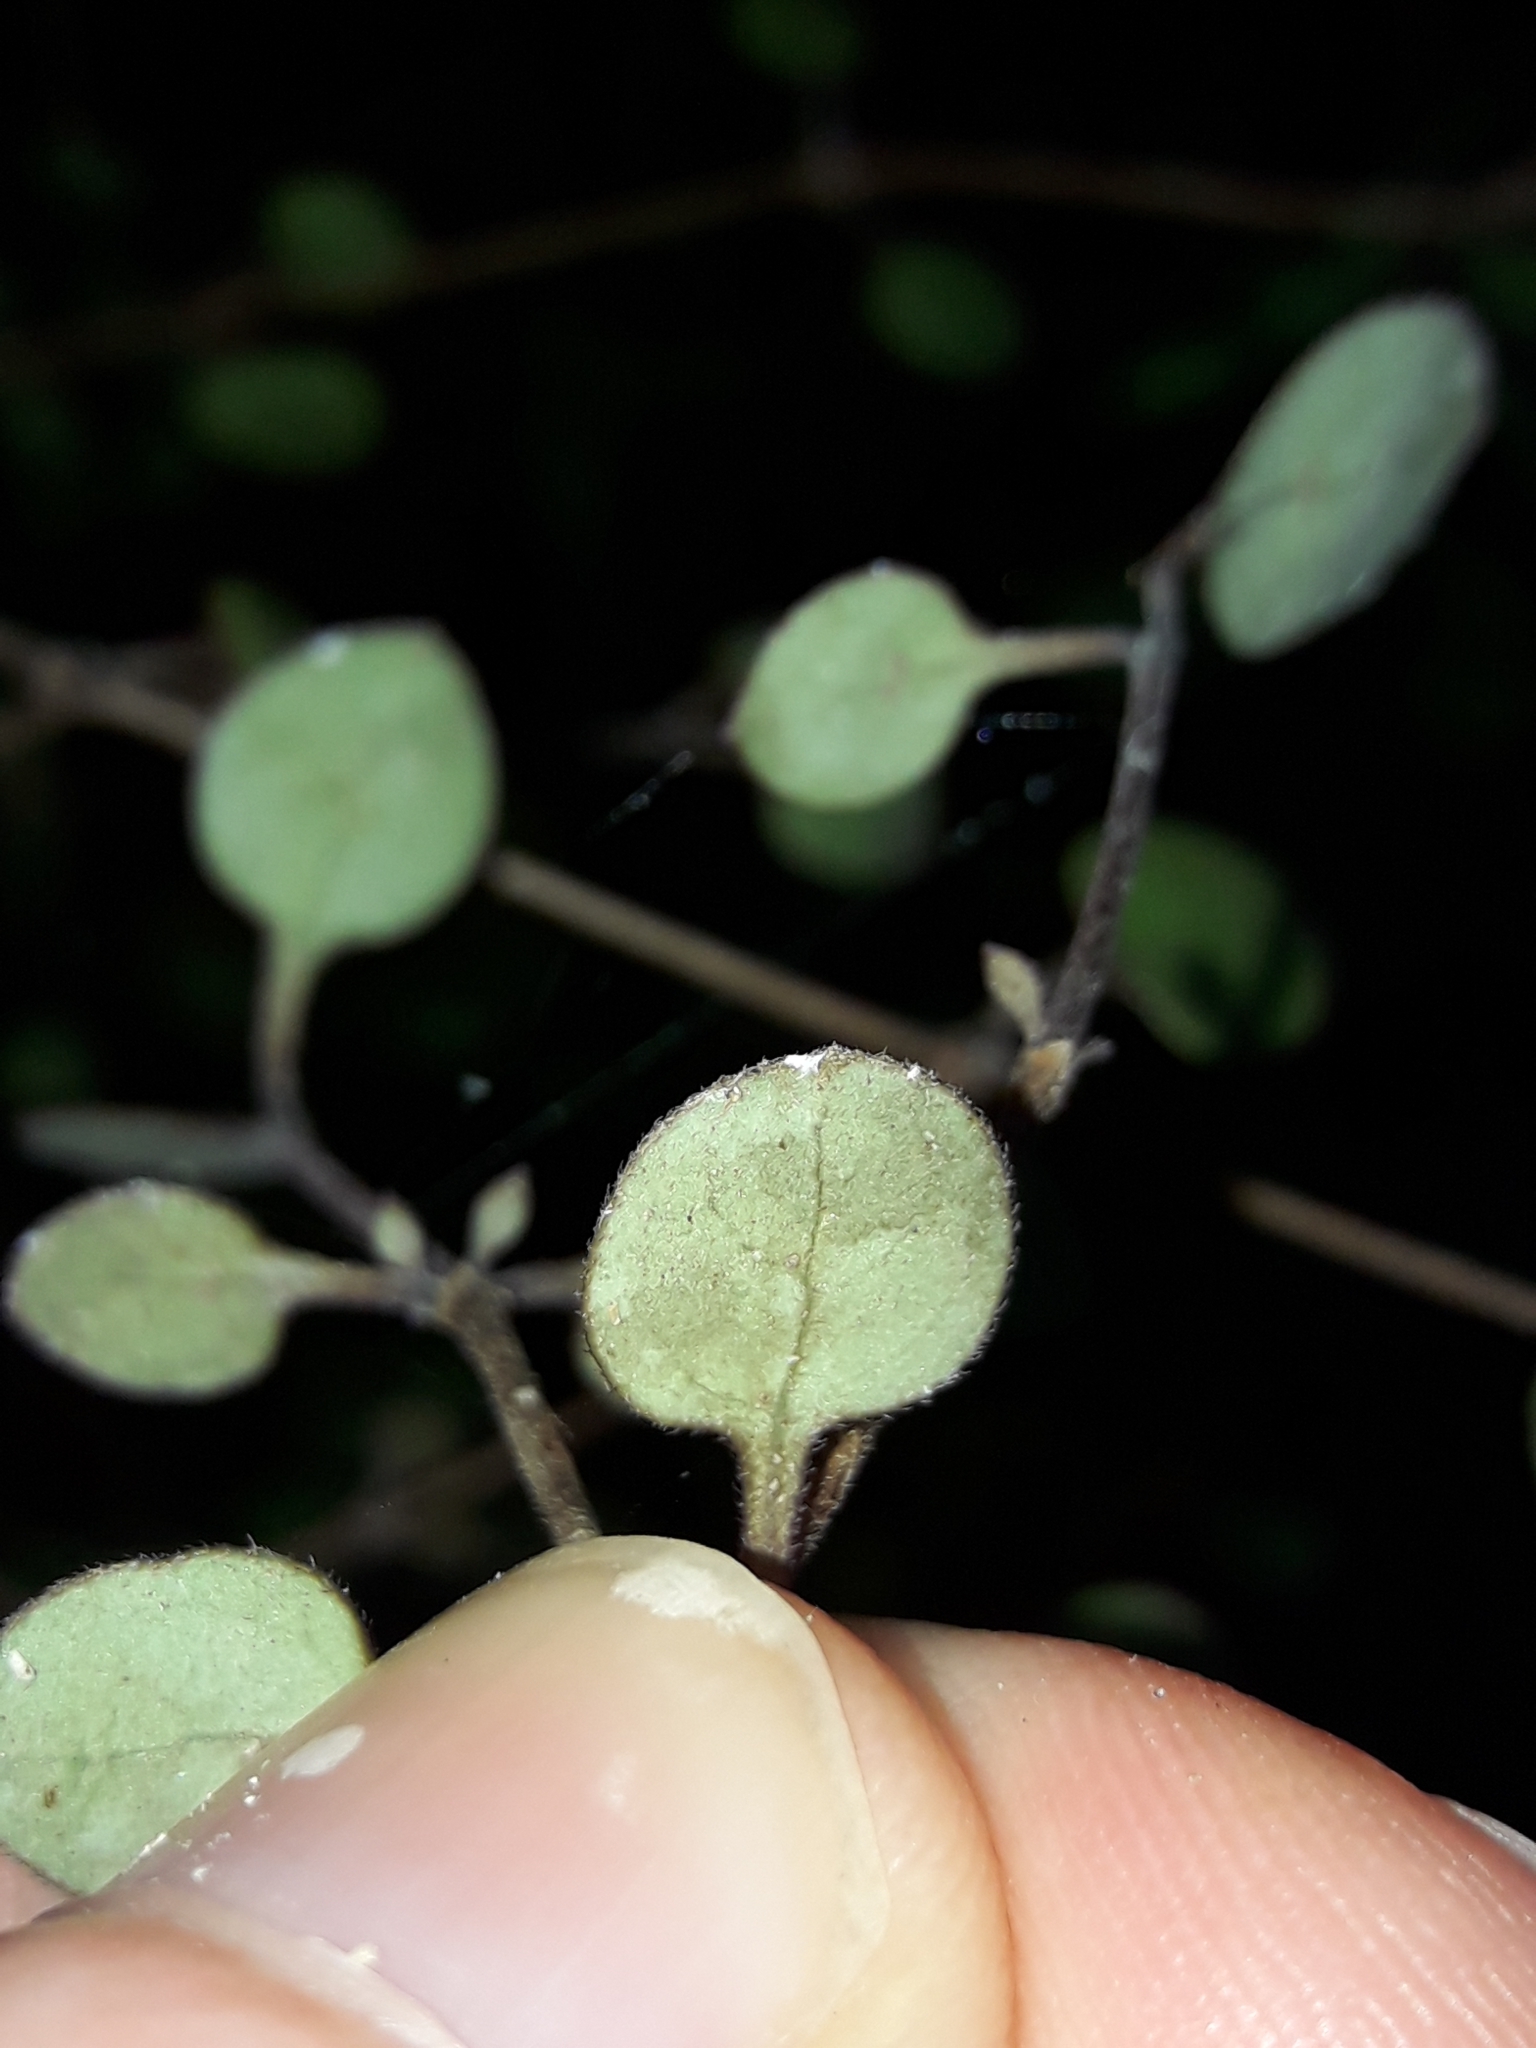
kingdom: Plantae
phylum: Tracheophyta
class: Magnoliopsida
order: Gentianales
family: Rubiaceae
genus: Coprosma
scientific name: Coprosma crassifolia
